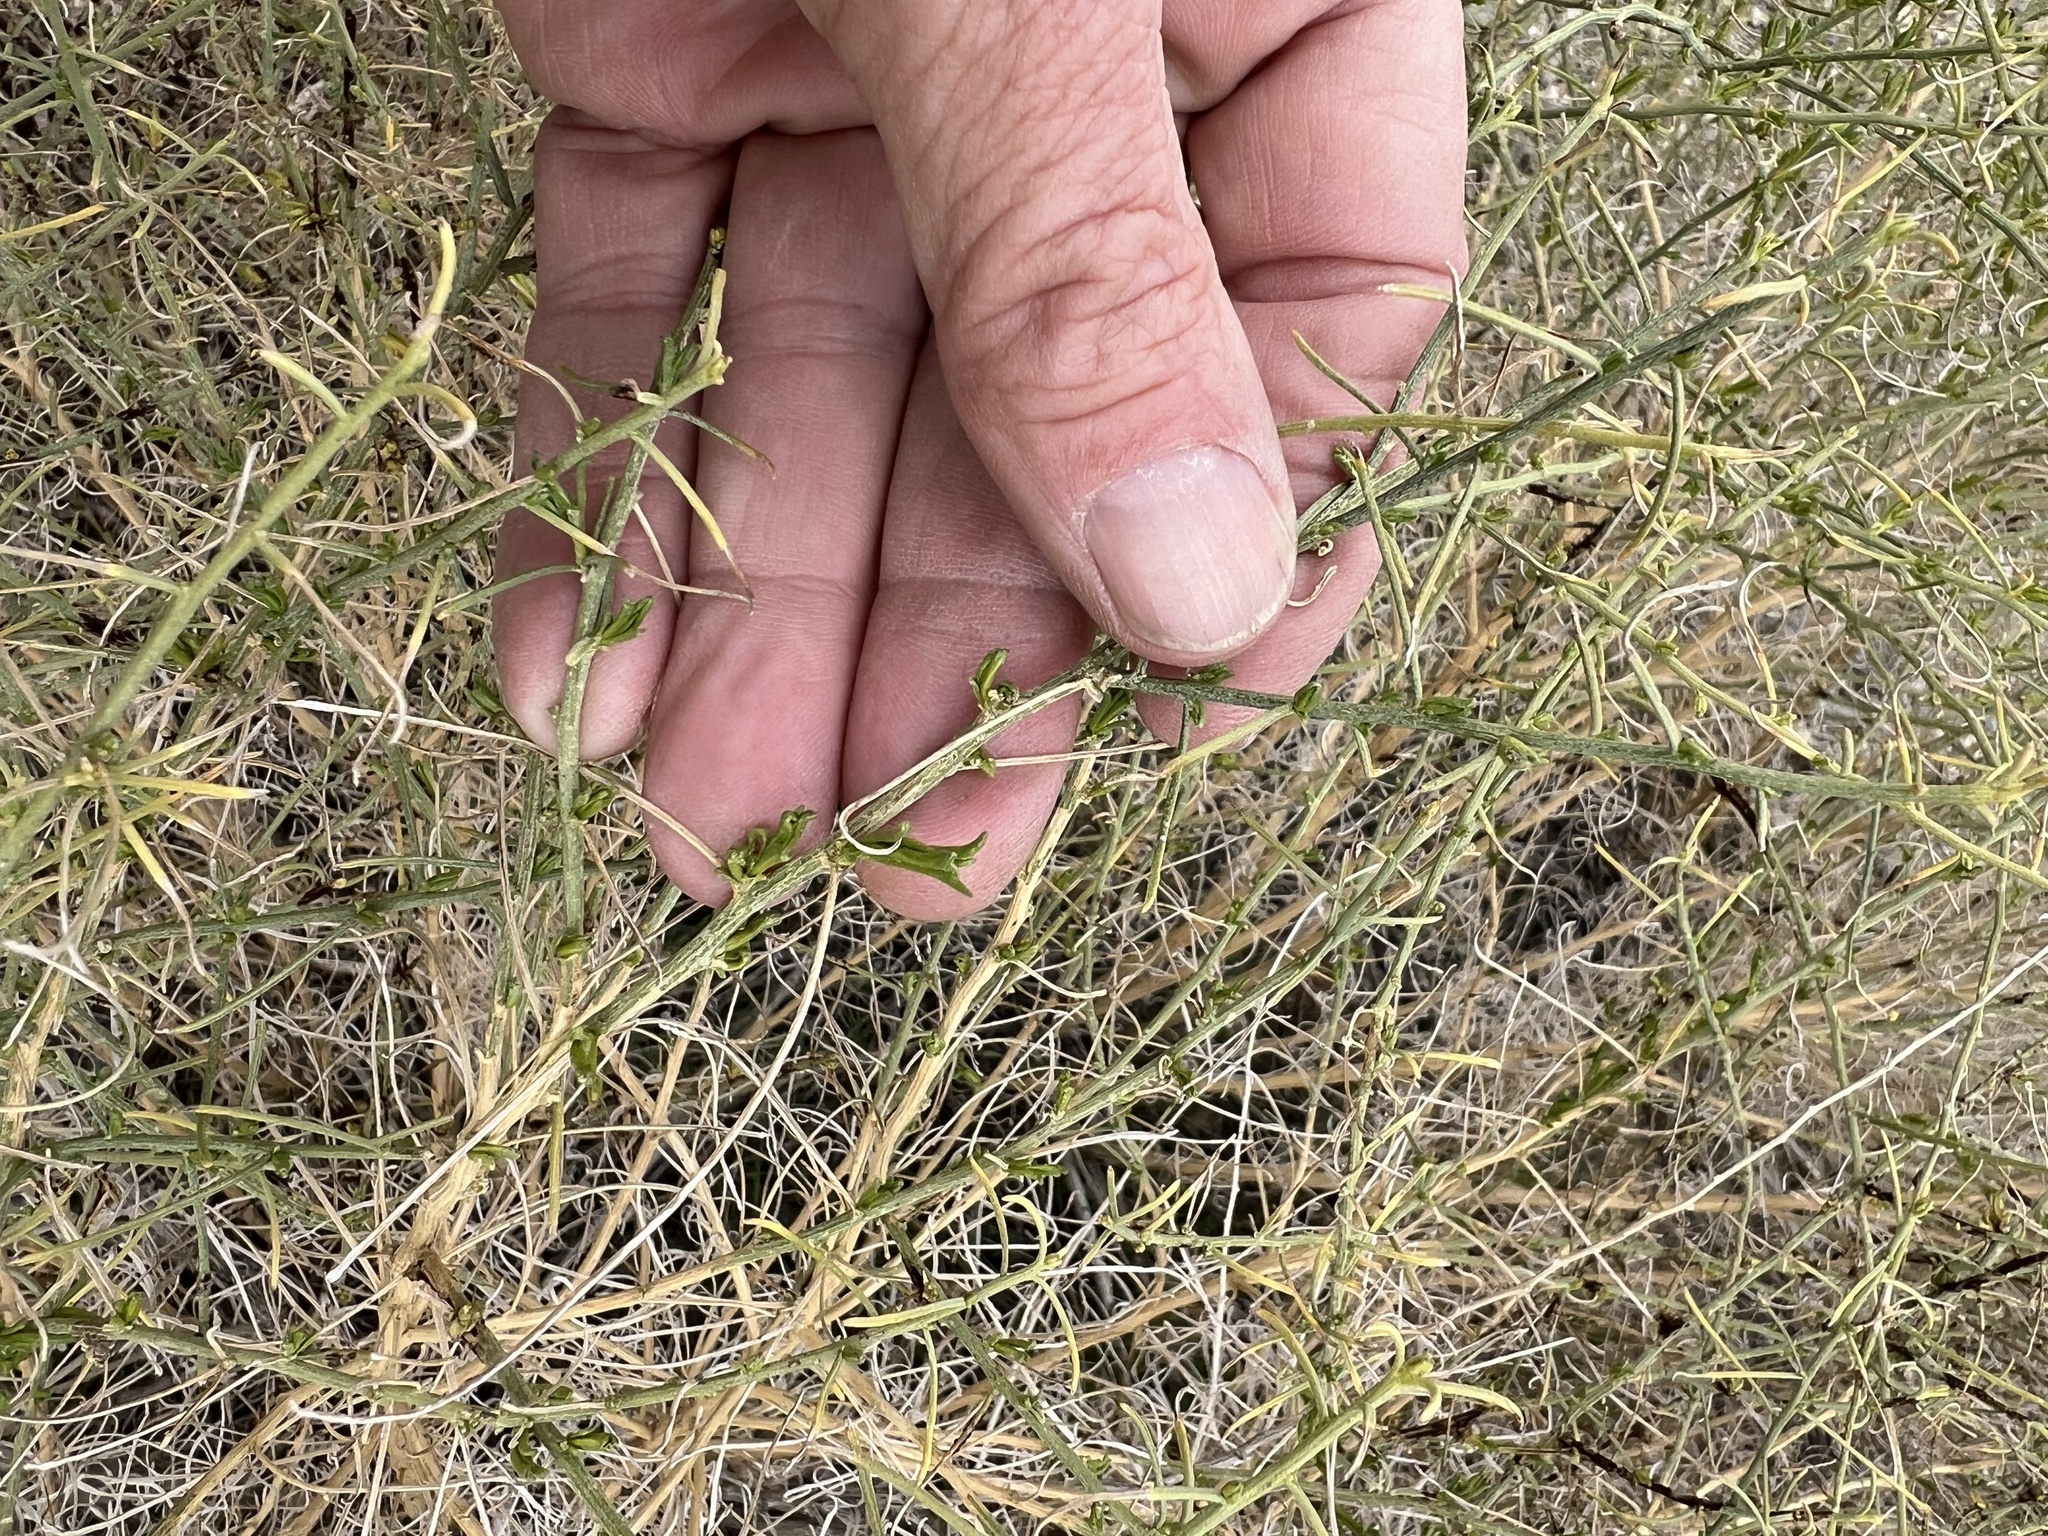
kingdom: Plantae
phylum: Tracheophyta
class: Magnoliopsida
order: Asterales
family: Asteraceae
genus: Ambrosia
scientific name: Ambrosia salsola
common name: Burrobrush
